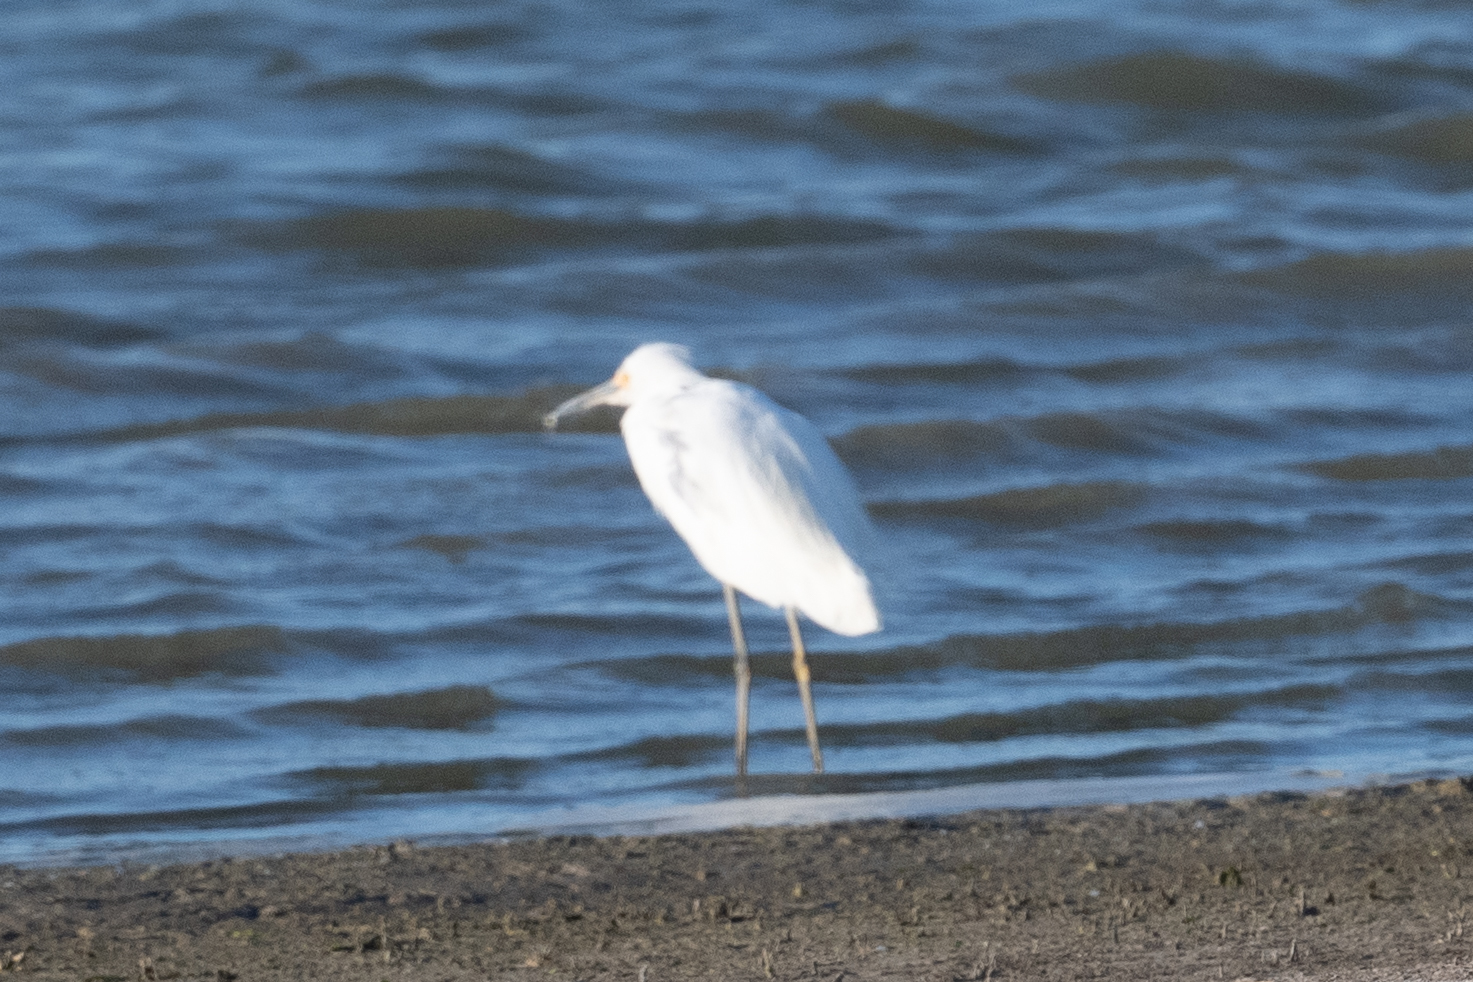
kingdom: Animalia
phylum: Chordata
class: Aves
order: Pelecaniformes
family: Ardeidae
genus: Egretta
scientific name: Egretta thula
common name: Snowy egret
